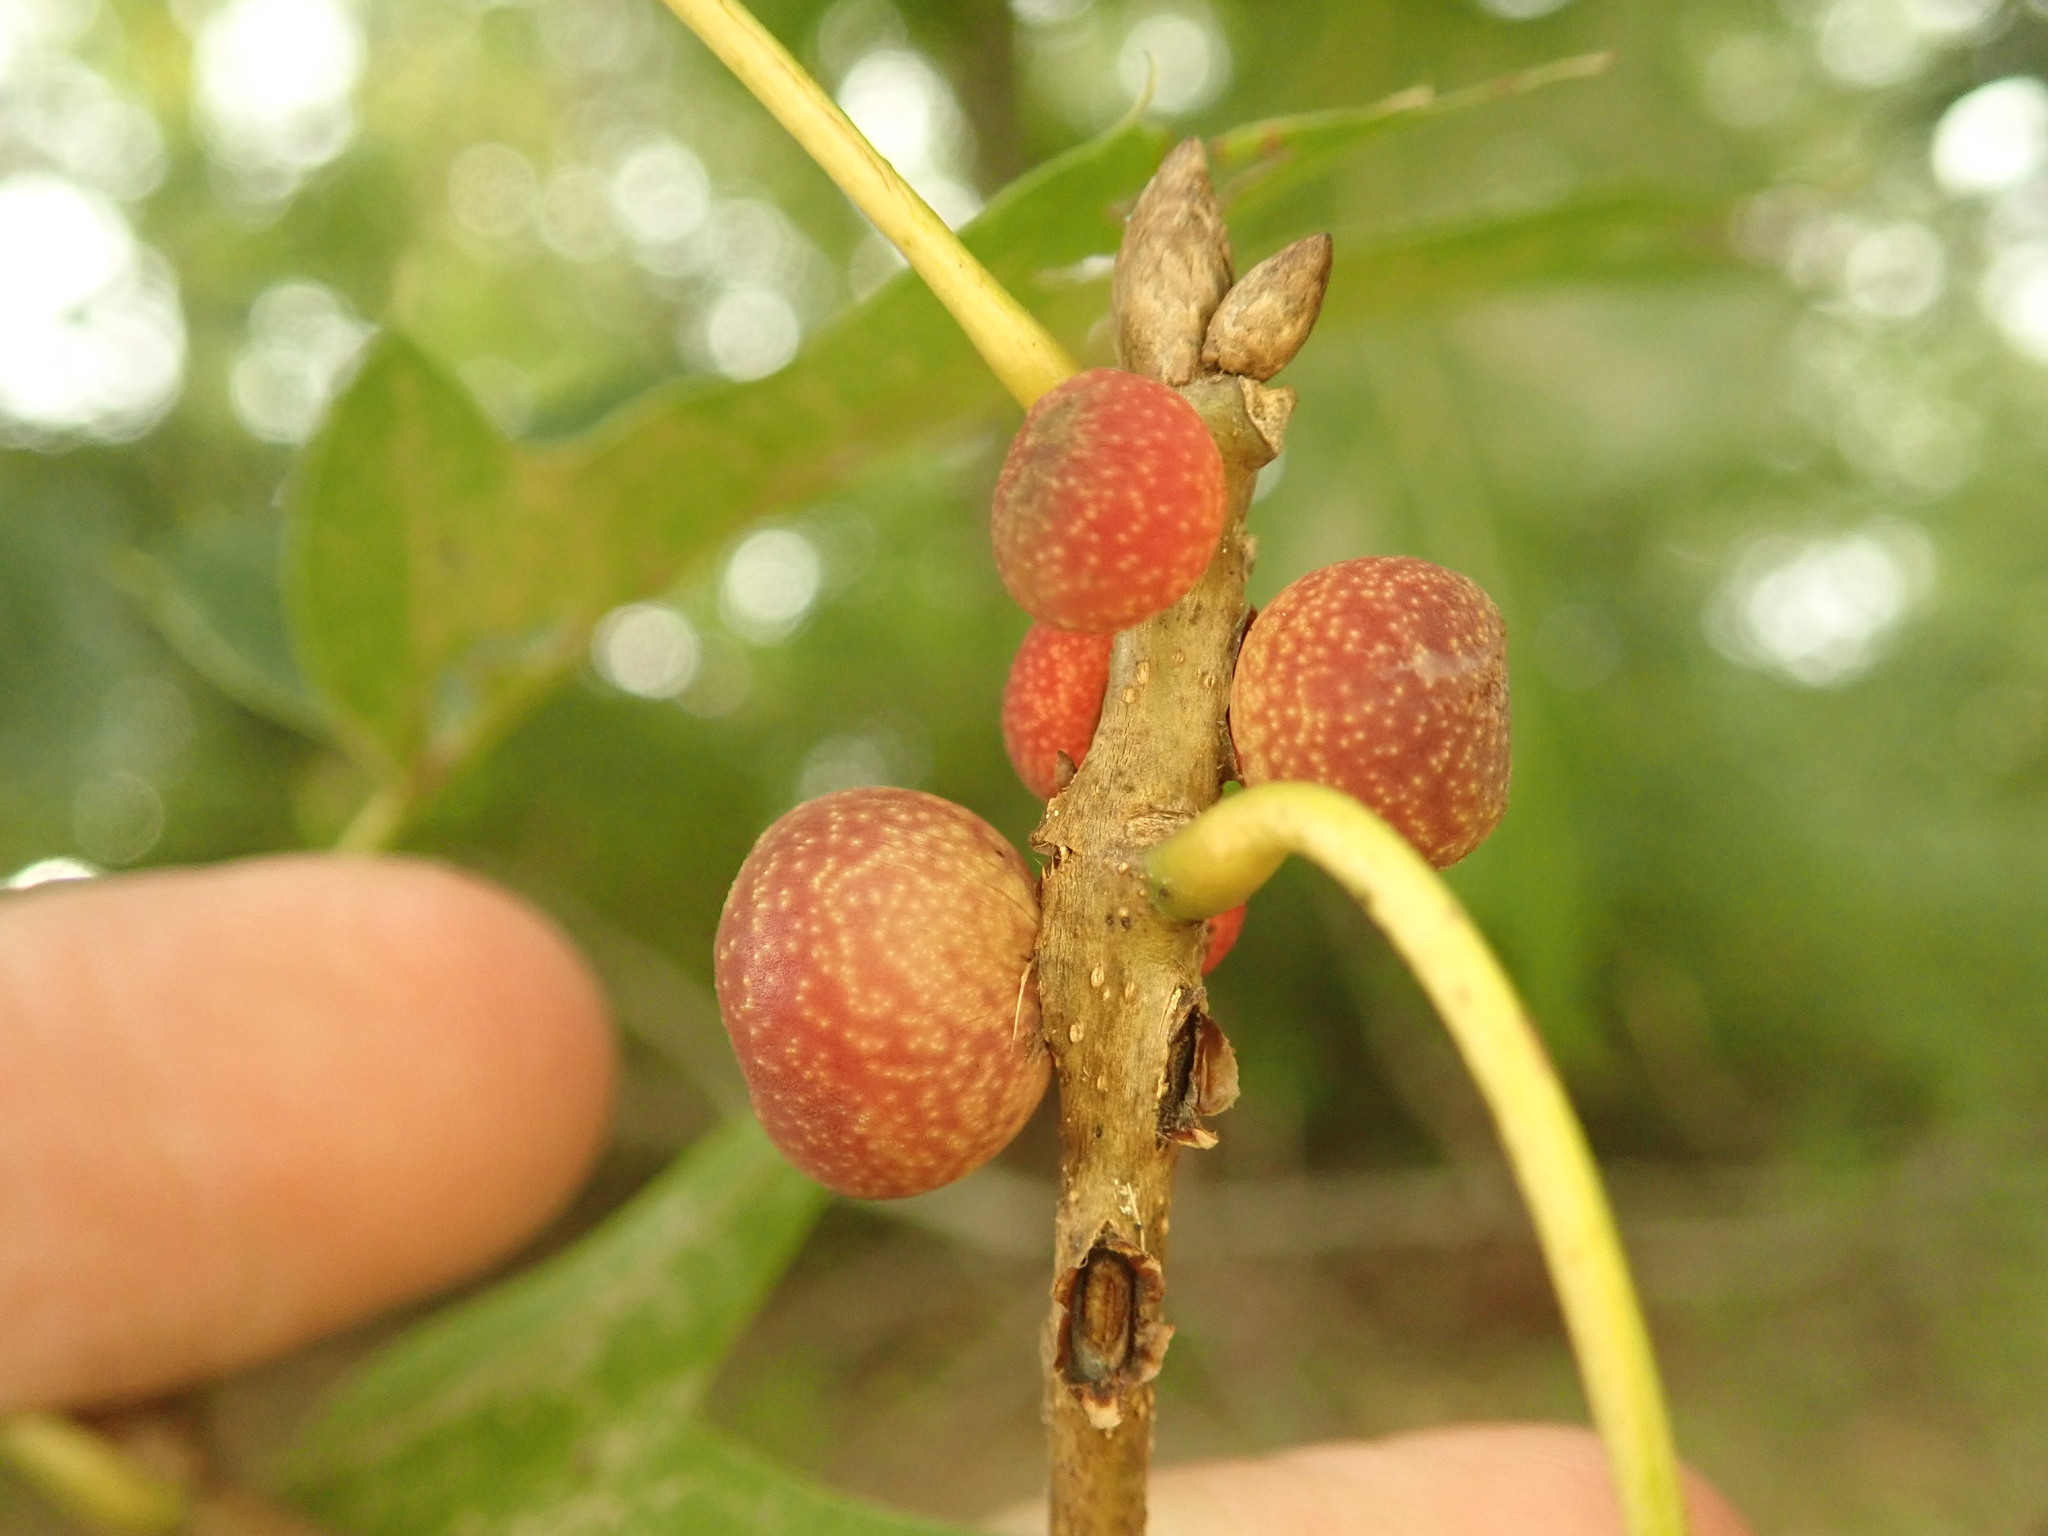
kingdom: Animalia
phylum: Arthropoda
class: Insecta
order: Hymenoptera
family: Cynipidae
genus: Kokkocynips
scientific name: Kokkocynips imbricariae
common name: Banded bullet gall wasp
